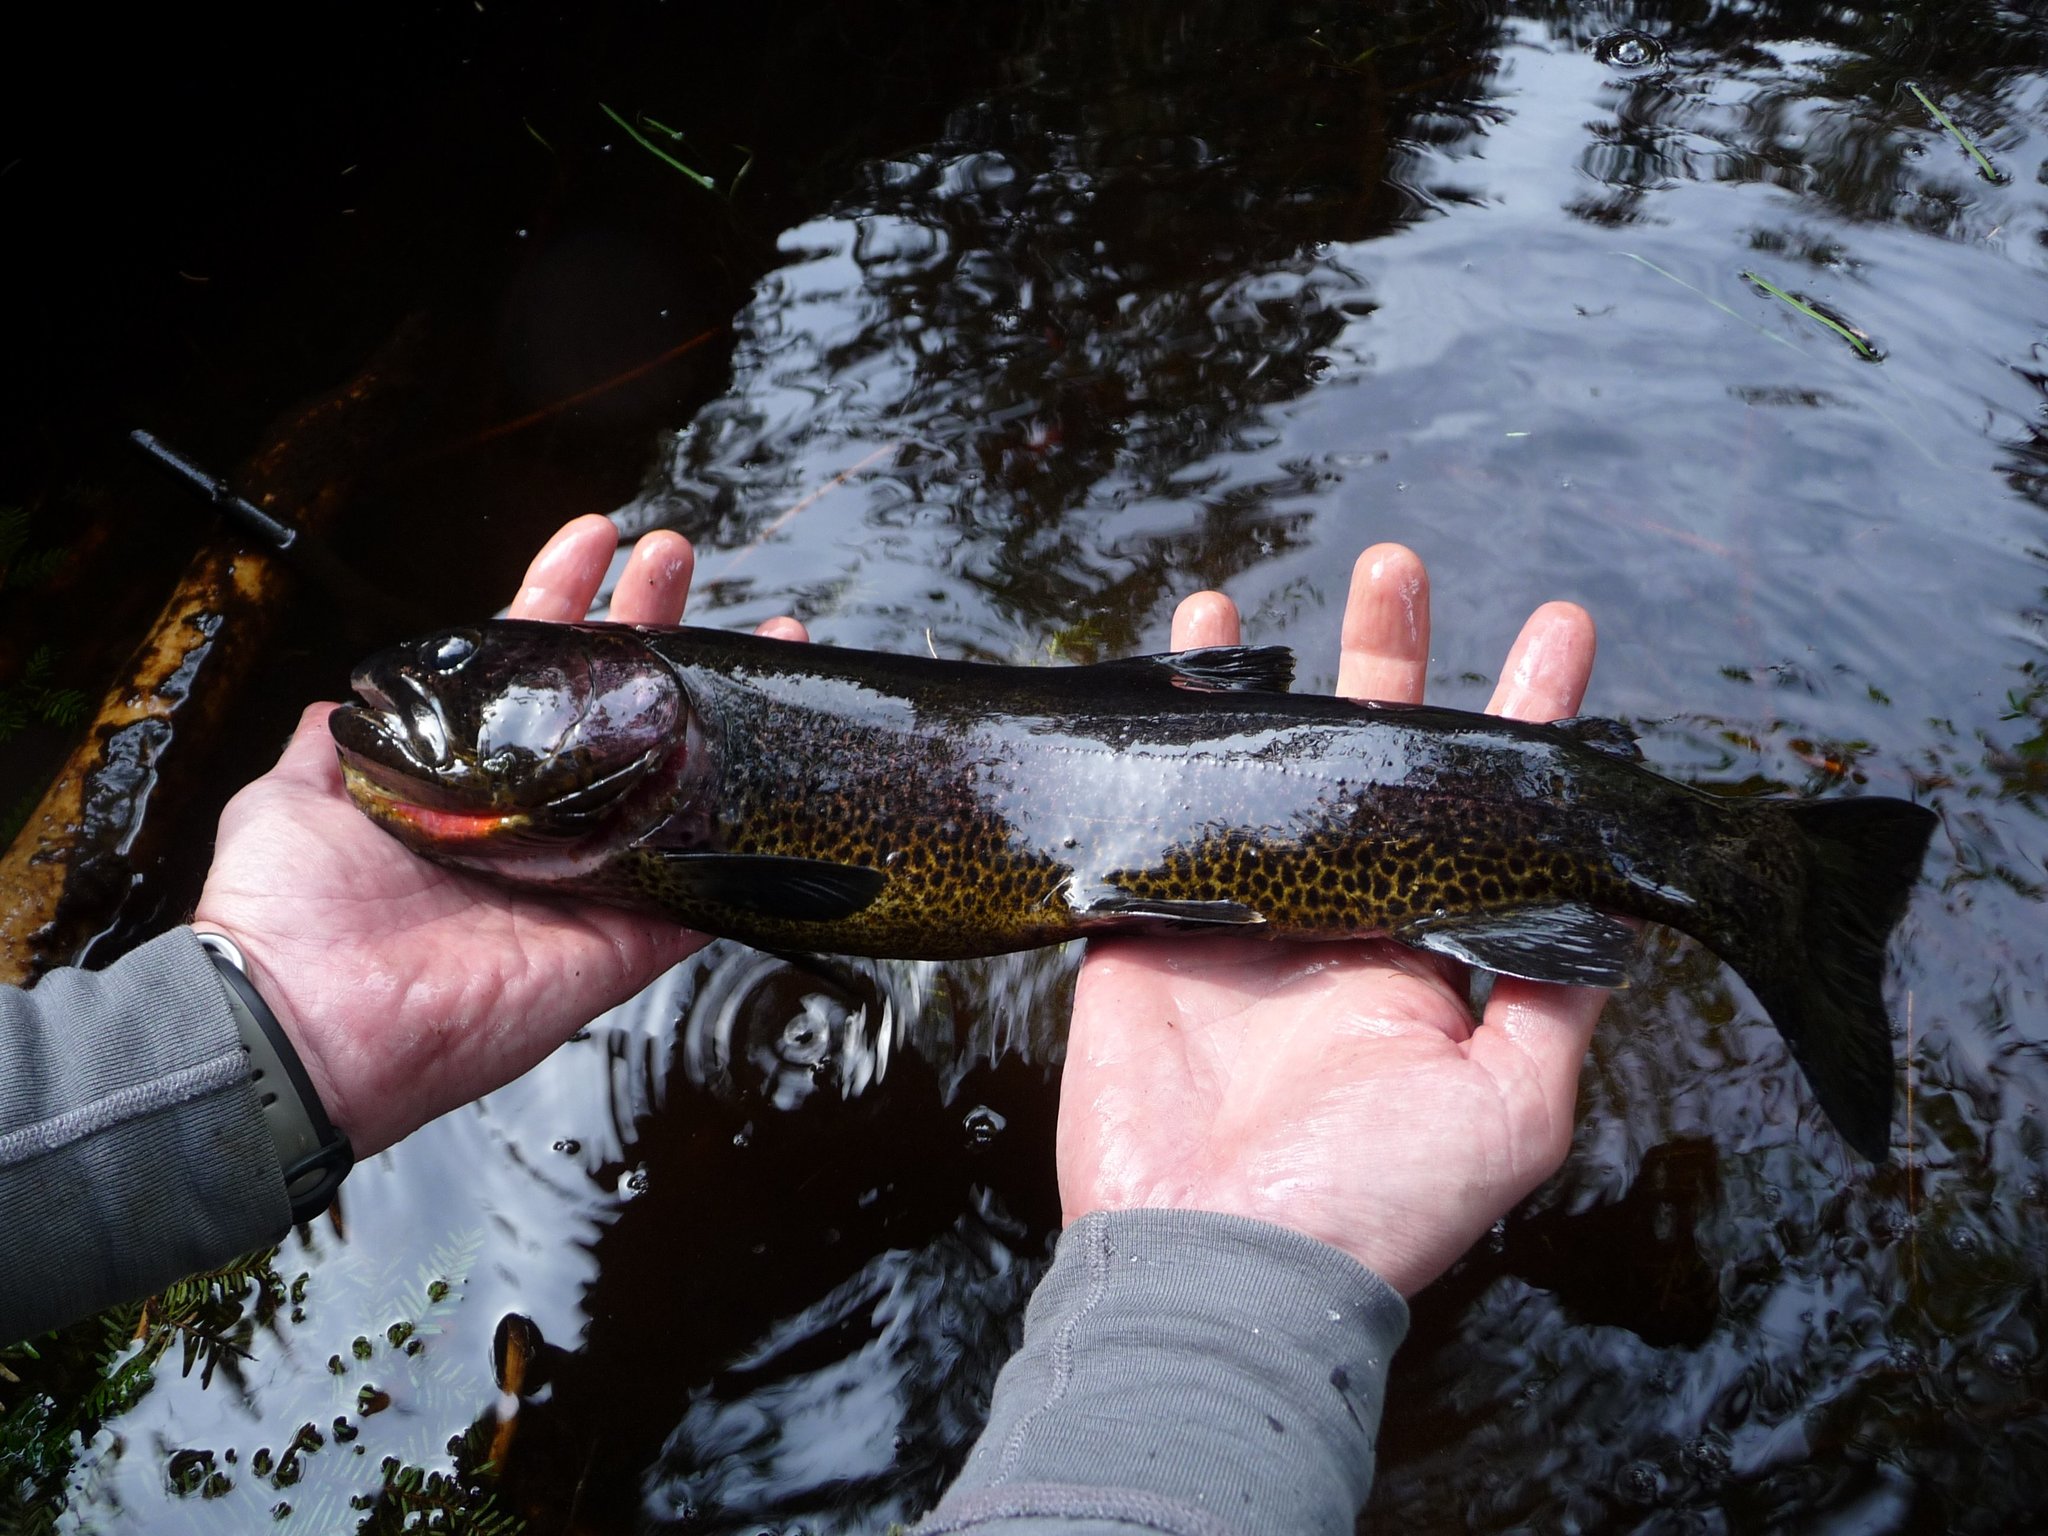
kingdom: Animalia
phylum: Chordata
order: Salmoniformes
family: Salmonidae
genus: Oncorhynchus
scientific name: Oncorhynchus clarkii
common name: Cutthroat trout
